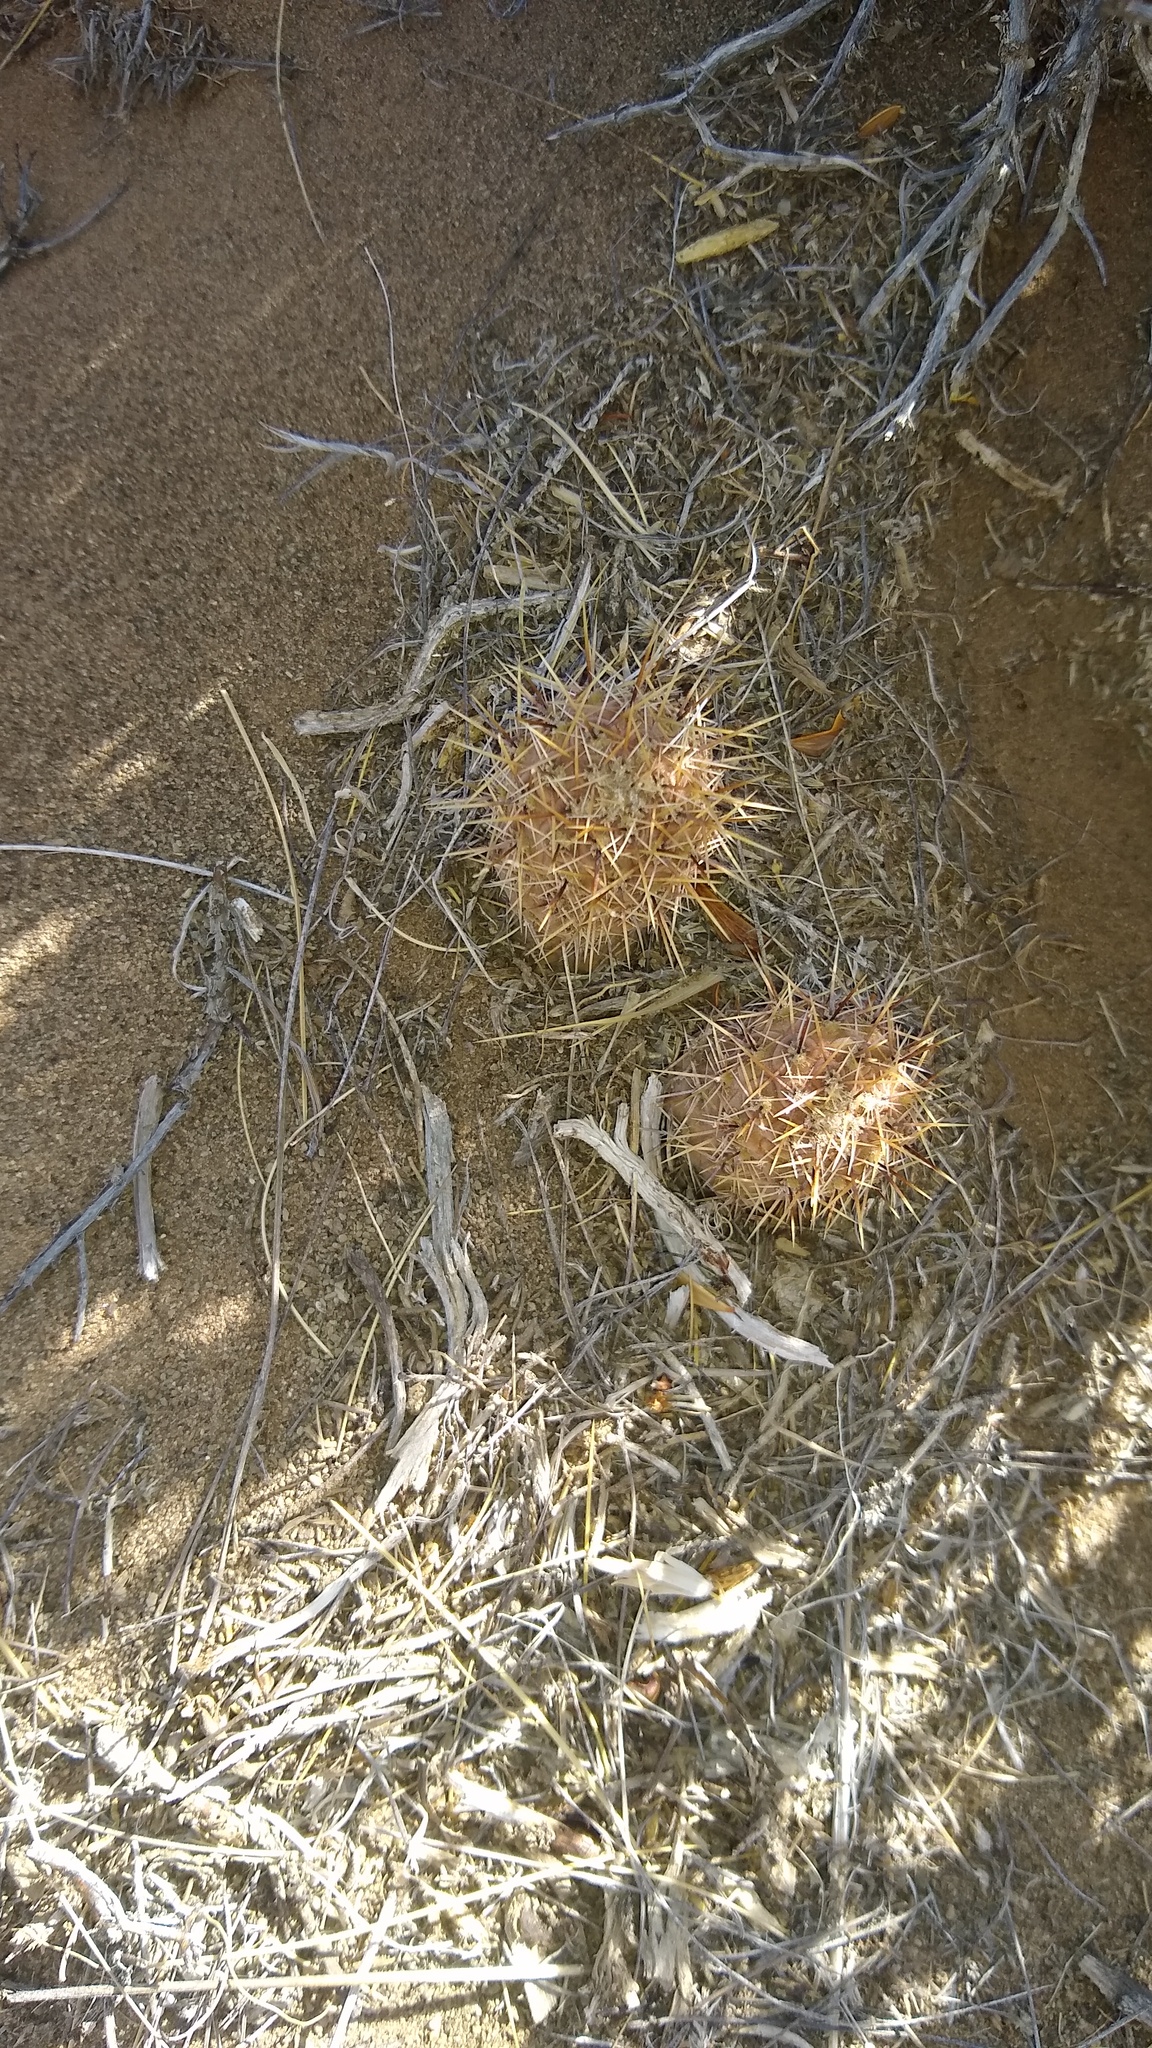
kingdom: Plantae
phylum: Tracheophyta
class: Magnoliopsida
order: Caryophyllales
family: Cactaceae
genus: Pterocactus
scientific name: Pterocactus hickenii
